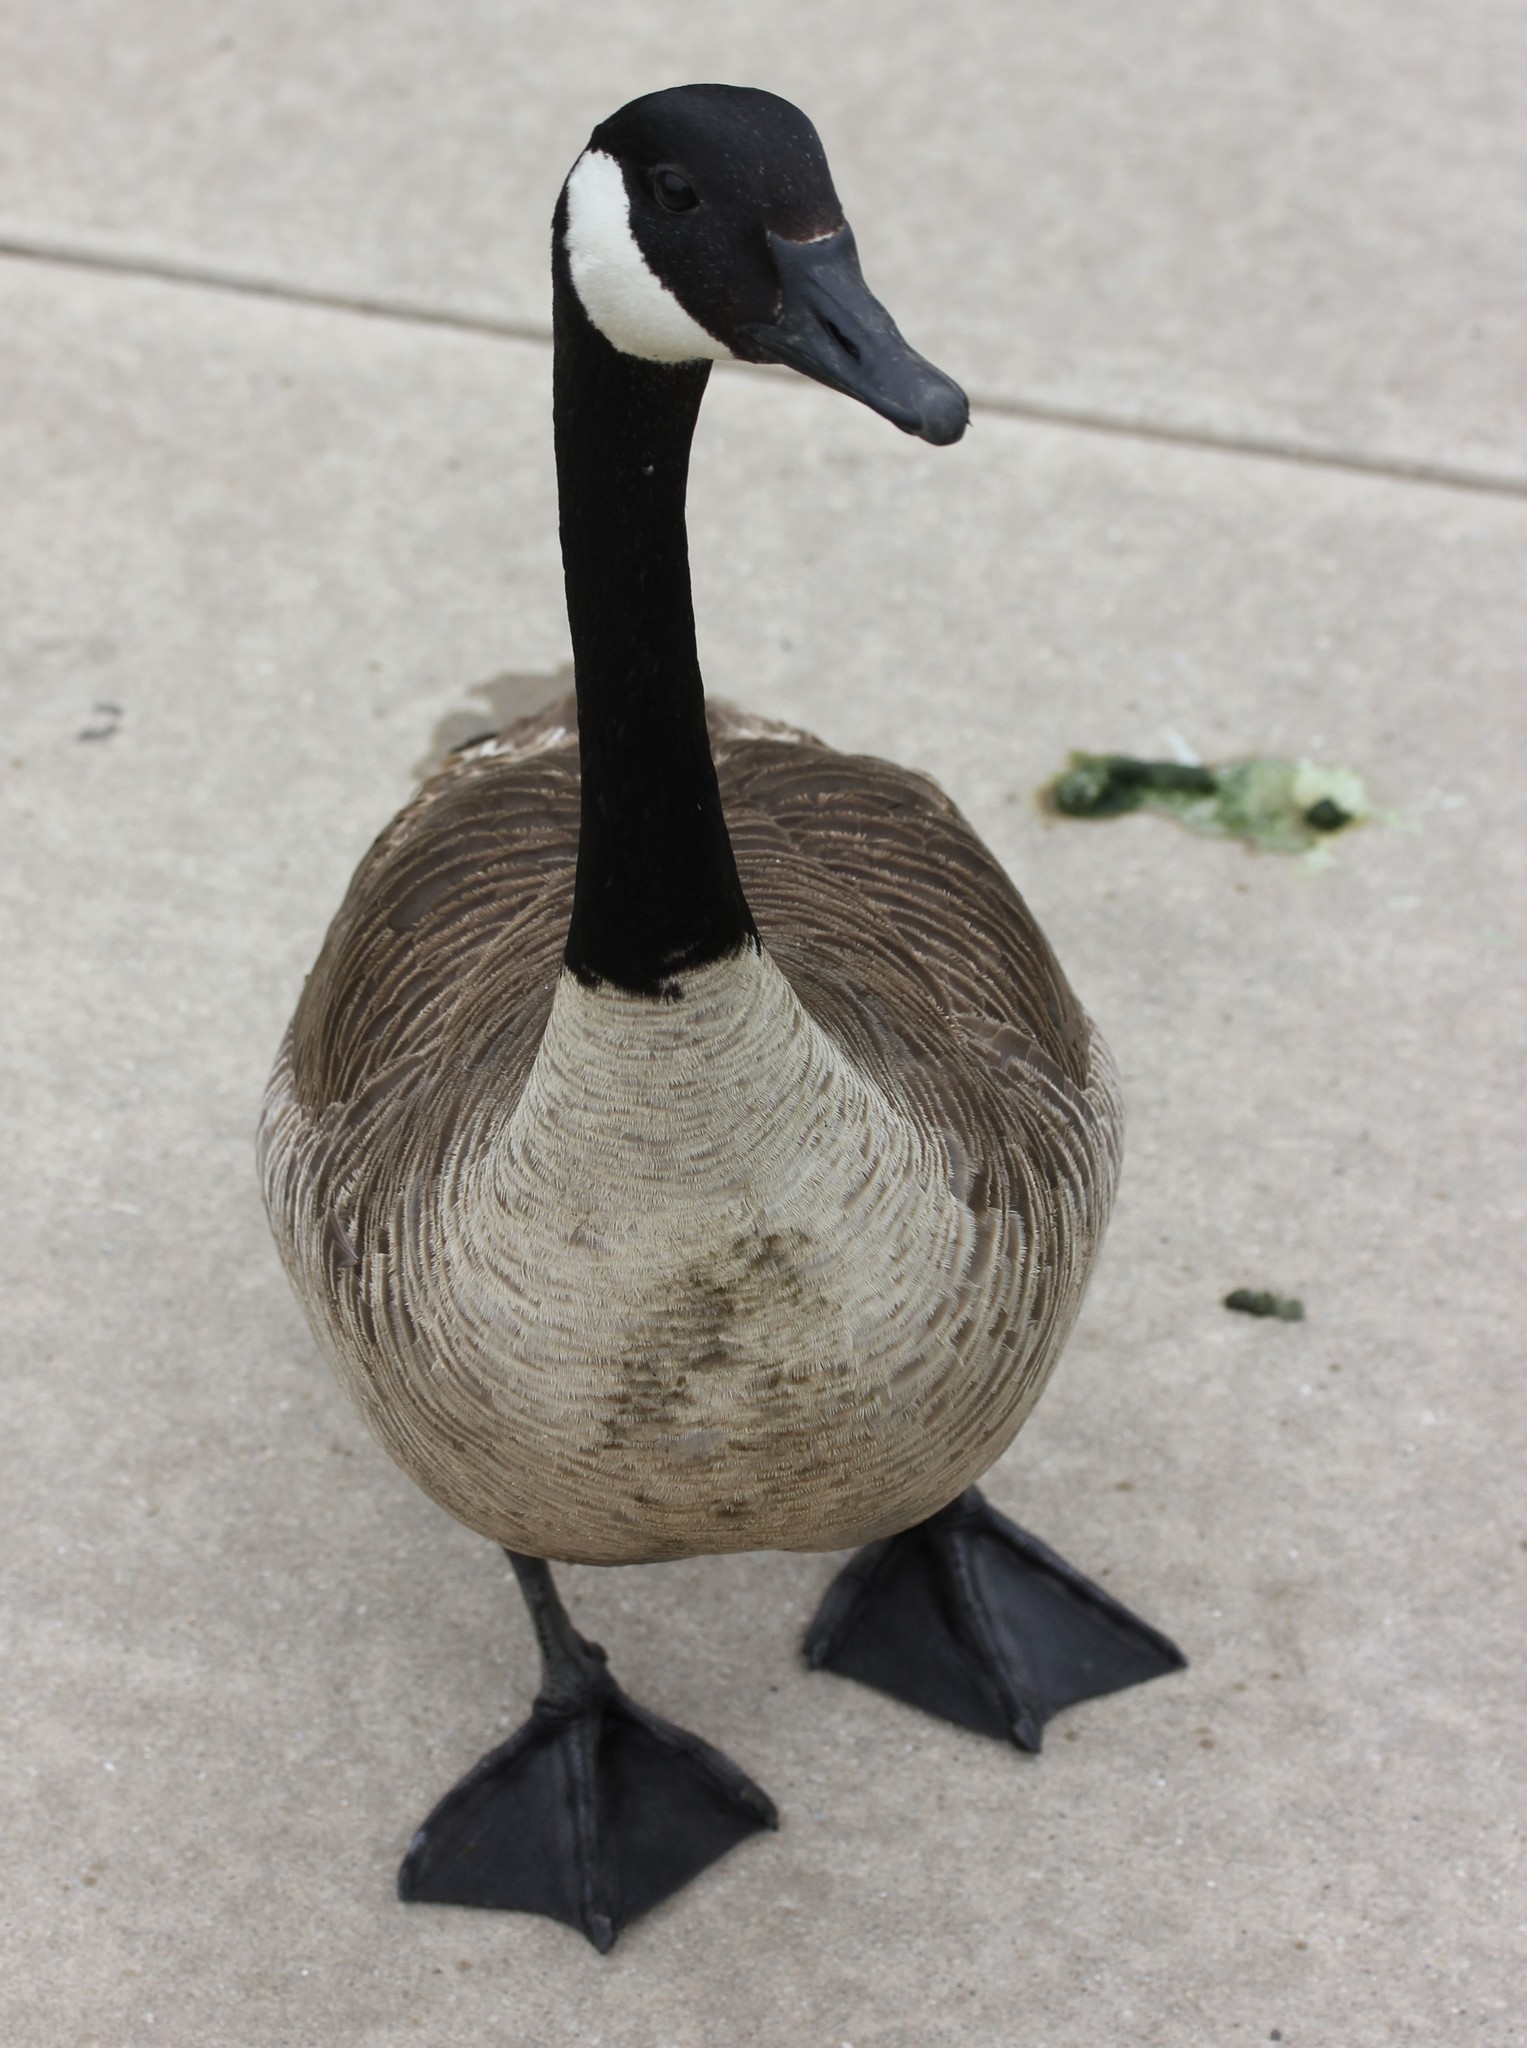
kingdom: Animalia
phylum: Chordata
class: Aves
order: Anseriformes
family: Anatidae
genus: Branta
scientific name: Branta canadensis
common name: Canada goose
